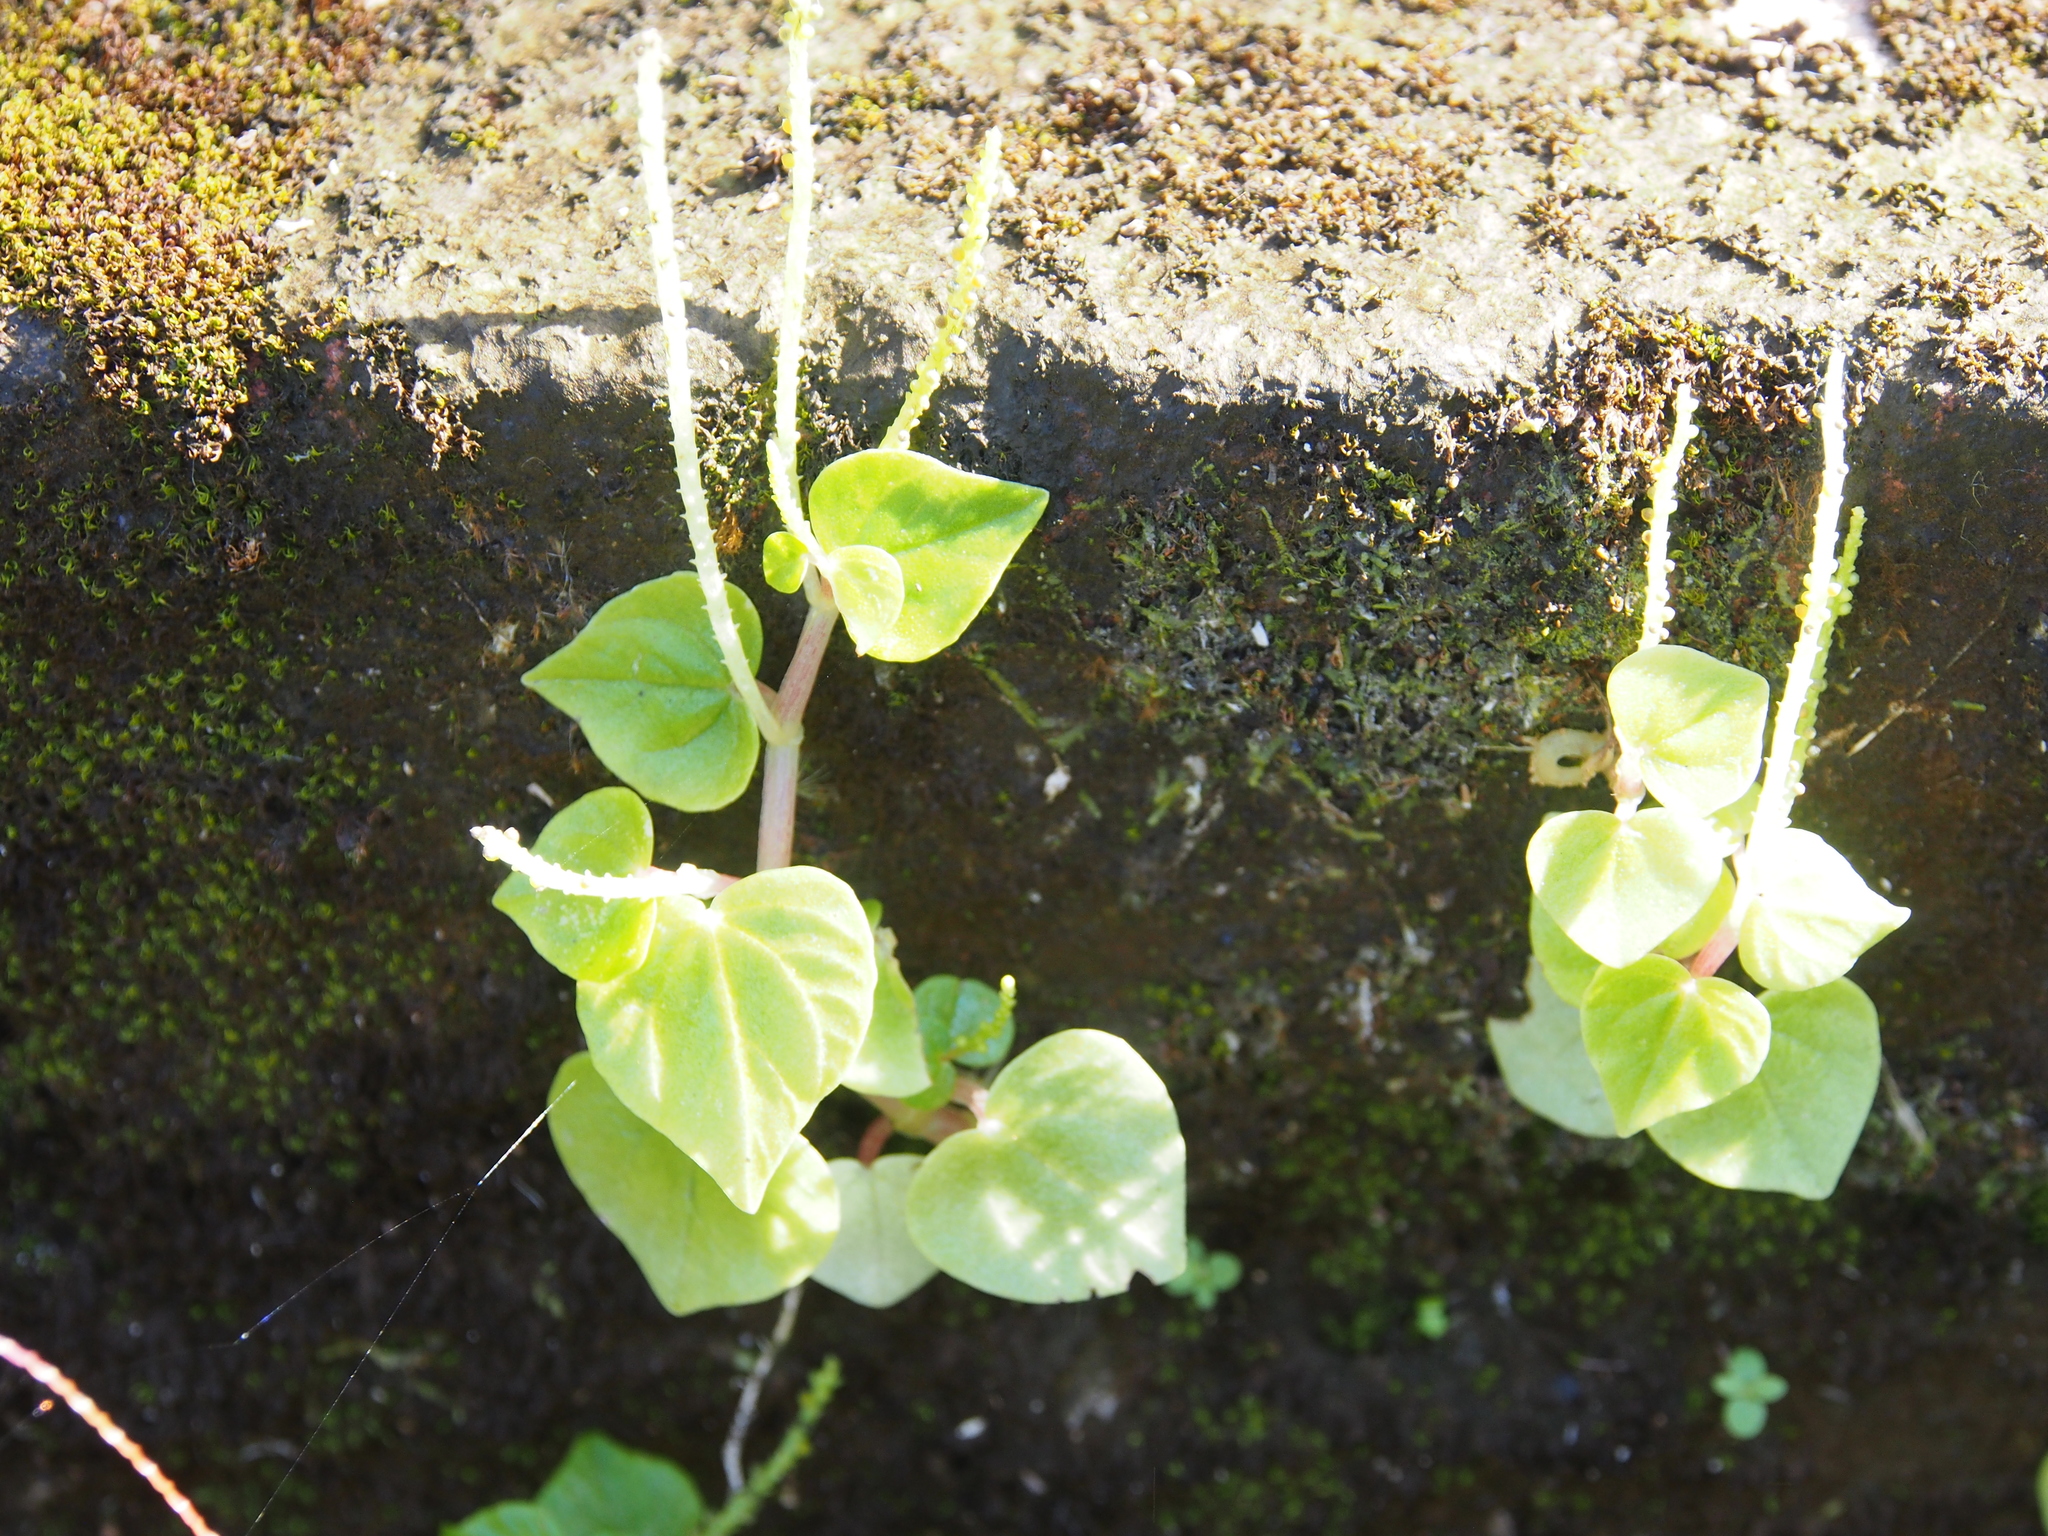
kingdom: Plantae
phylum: Tracheophyta
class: Magnoliopsida
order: Piperales
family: Piperaceae
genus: Peperomia
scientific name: Peperomia pellucida
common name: Man to man
